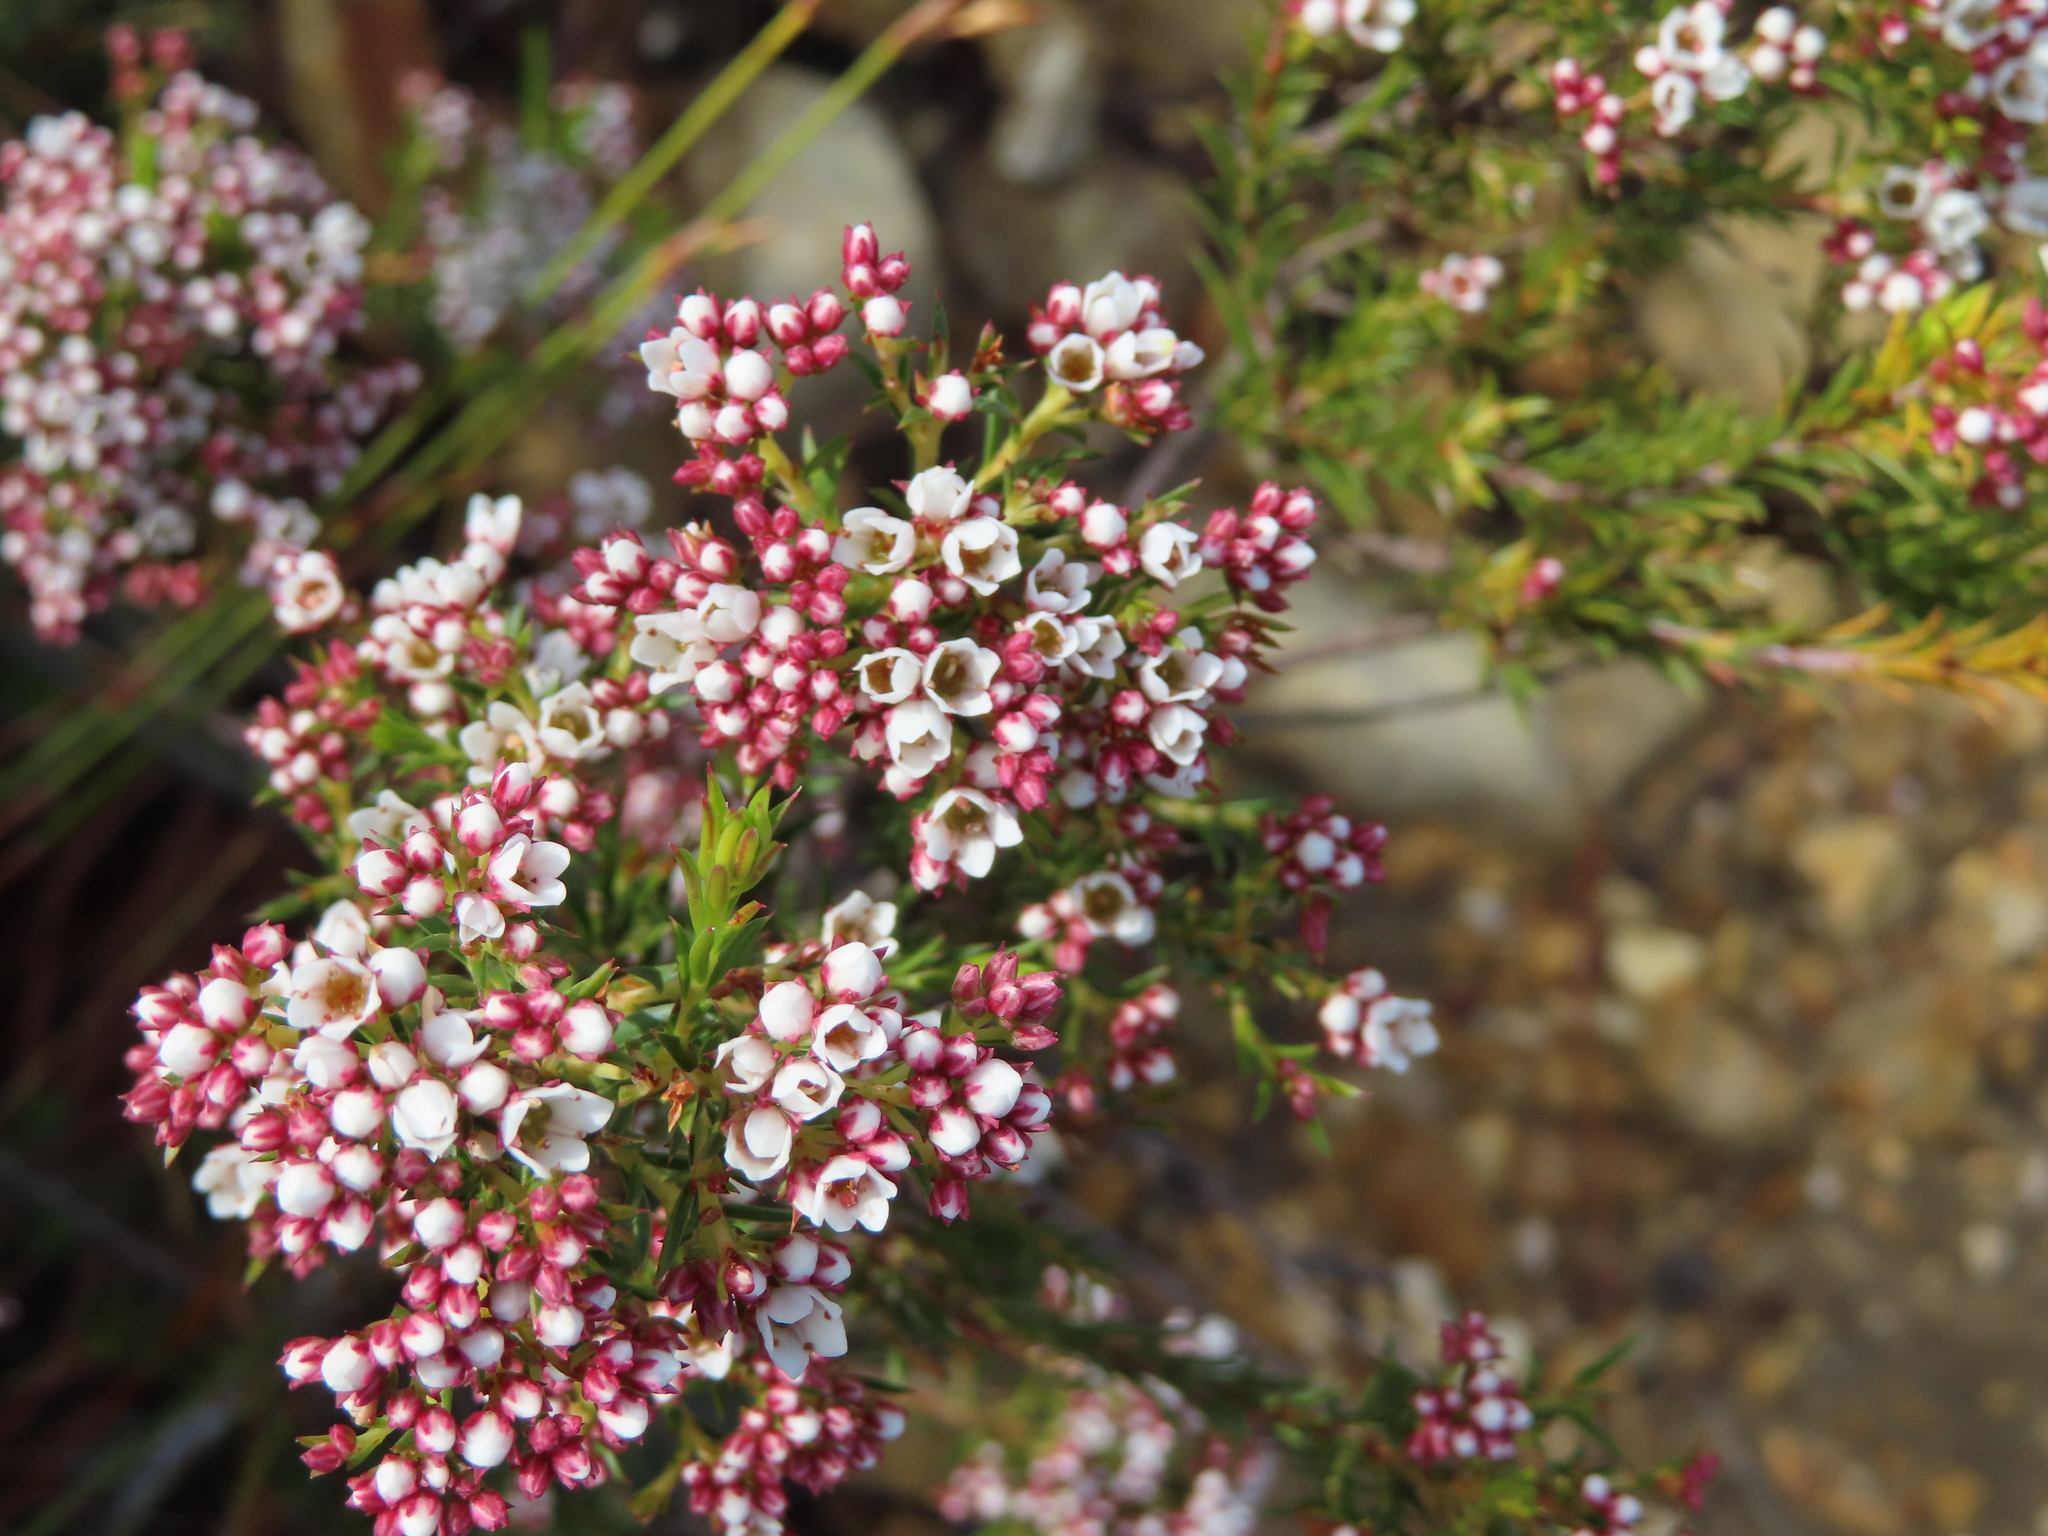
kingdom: Plantae
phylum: Tracheophyta
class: Magnoliopsida
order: Sapindales
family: Rutaceae
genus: Diosma
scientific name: Diosma hirsuta
